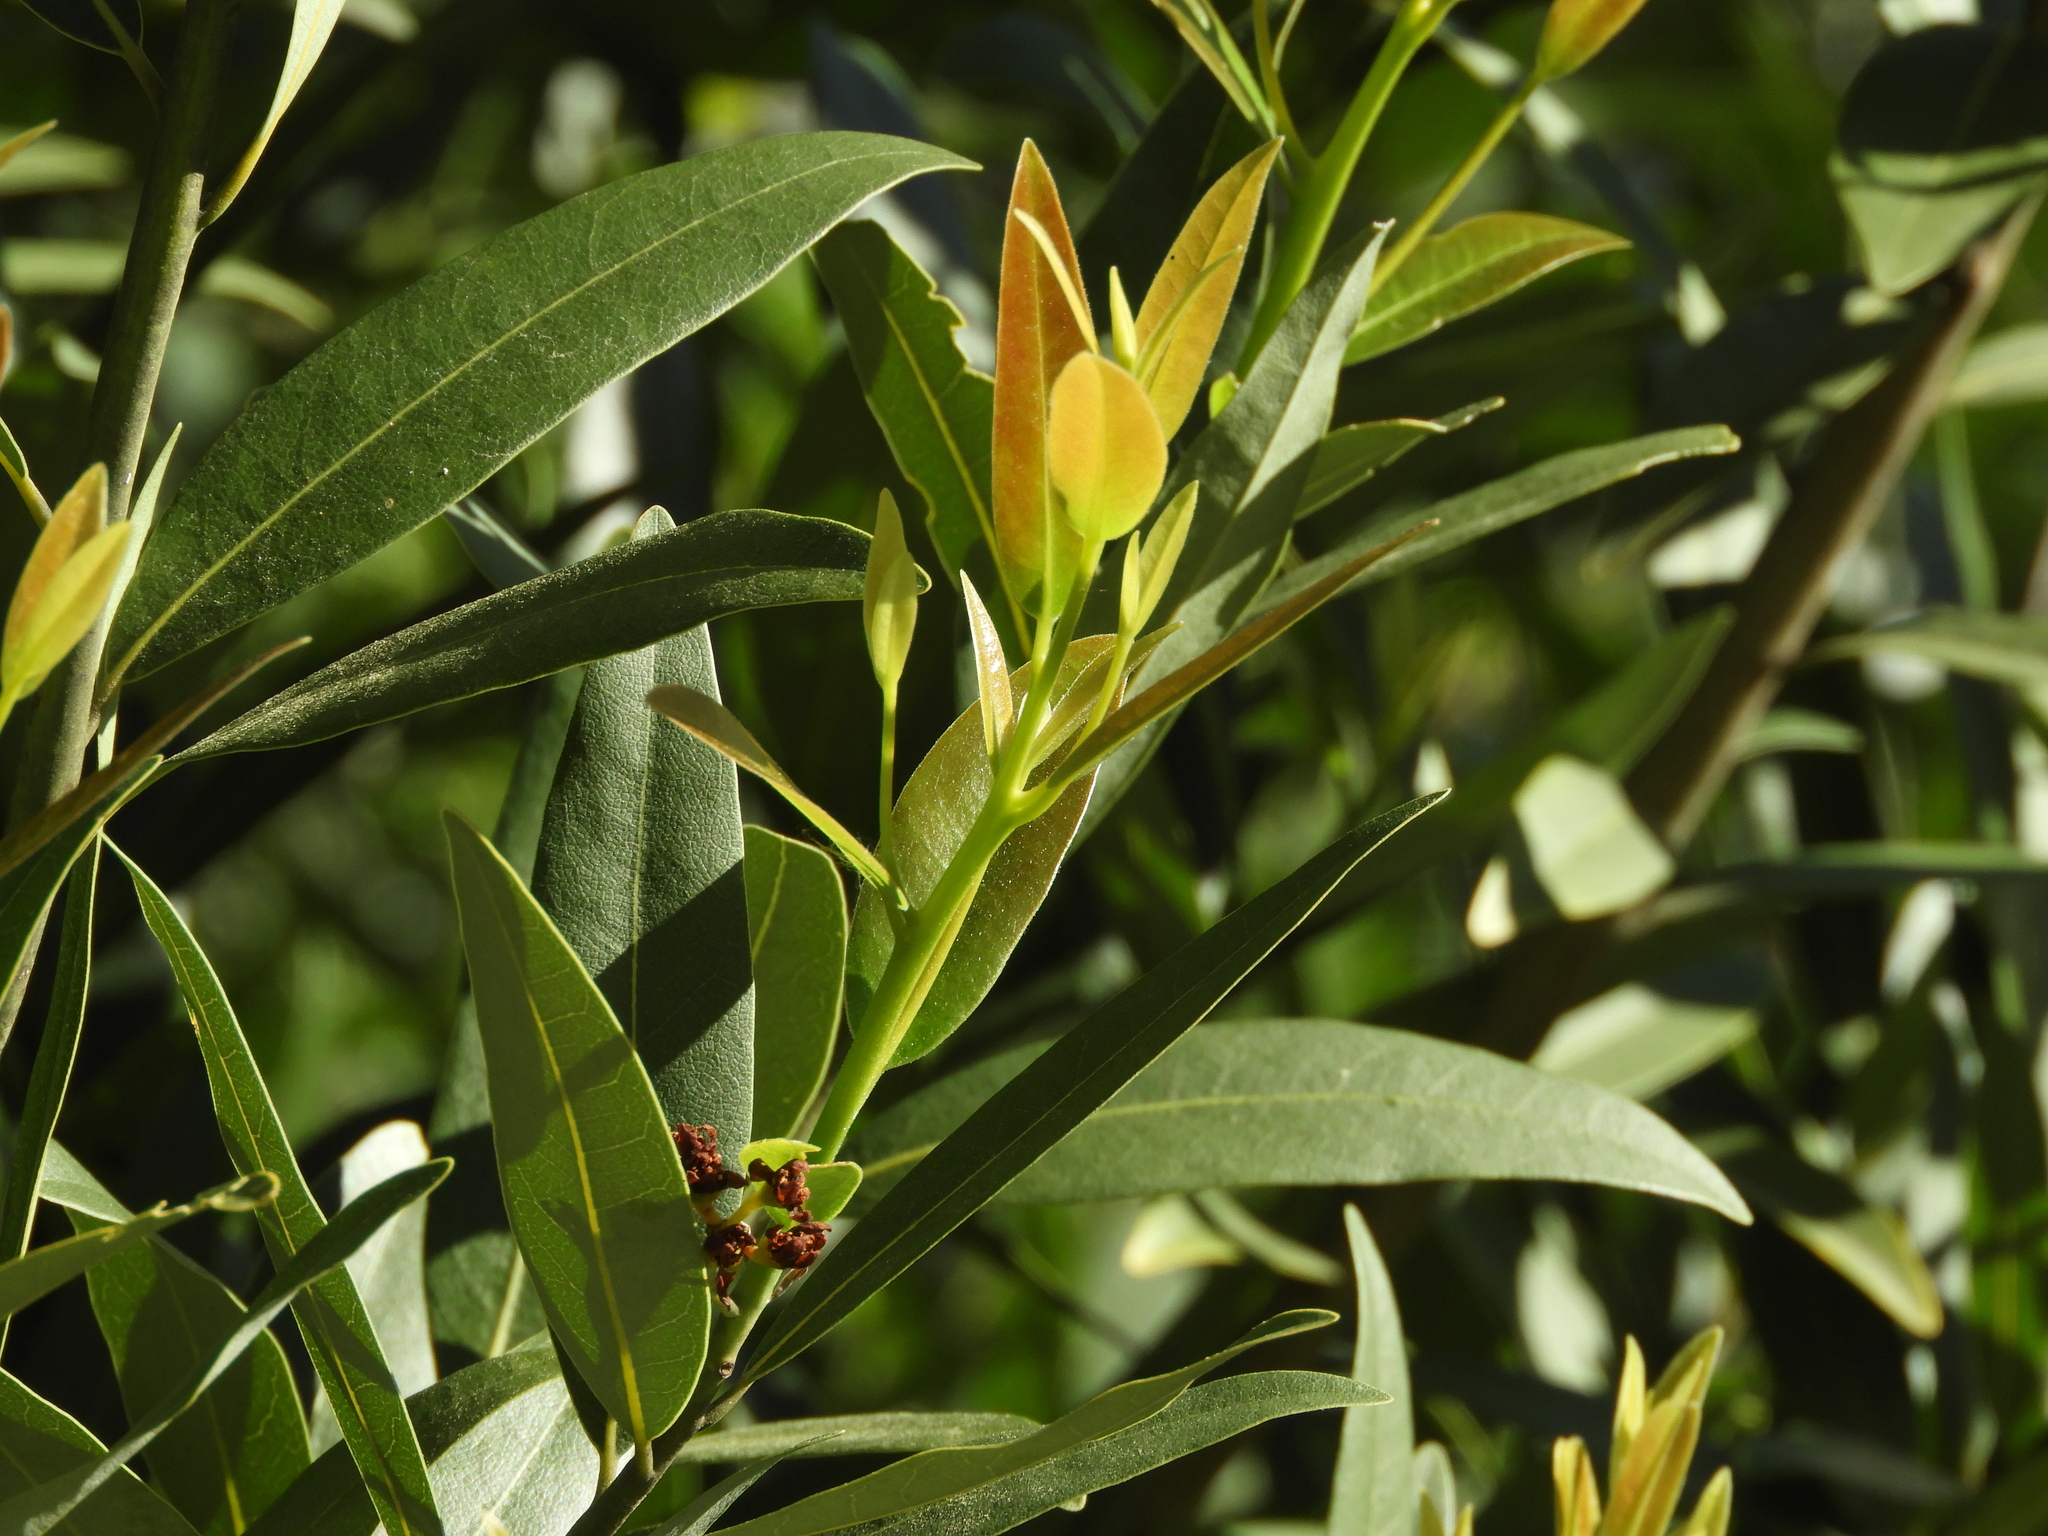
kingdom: Plantae
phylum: Tracheophyta
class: Magnoliopsida
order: Laurales
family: Lauraceae
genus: Umbellularia
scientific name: Umbellularia californica
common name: California bay
